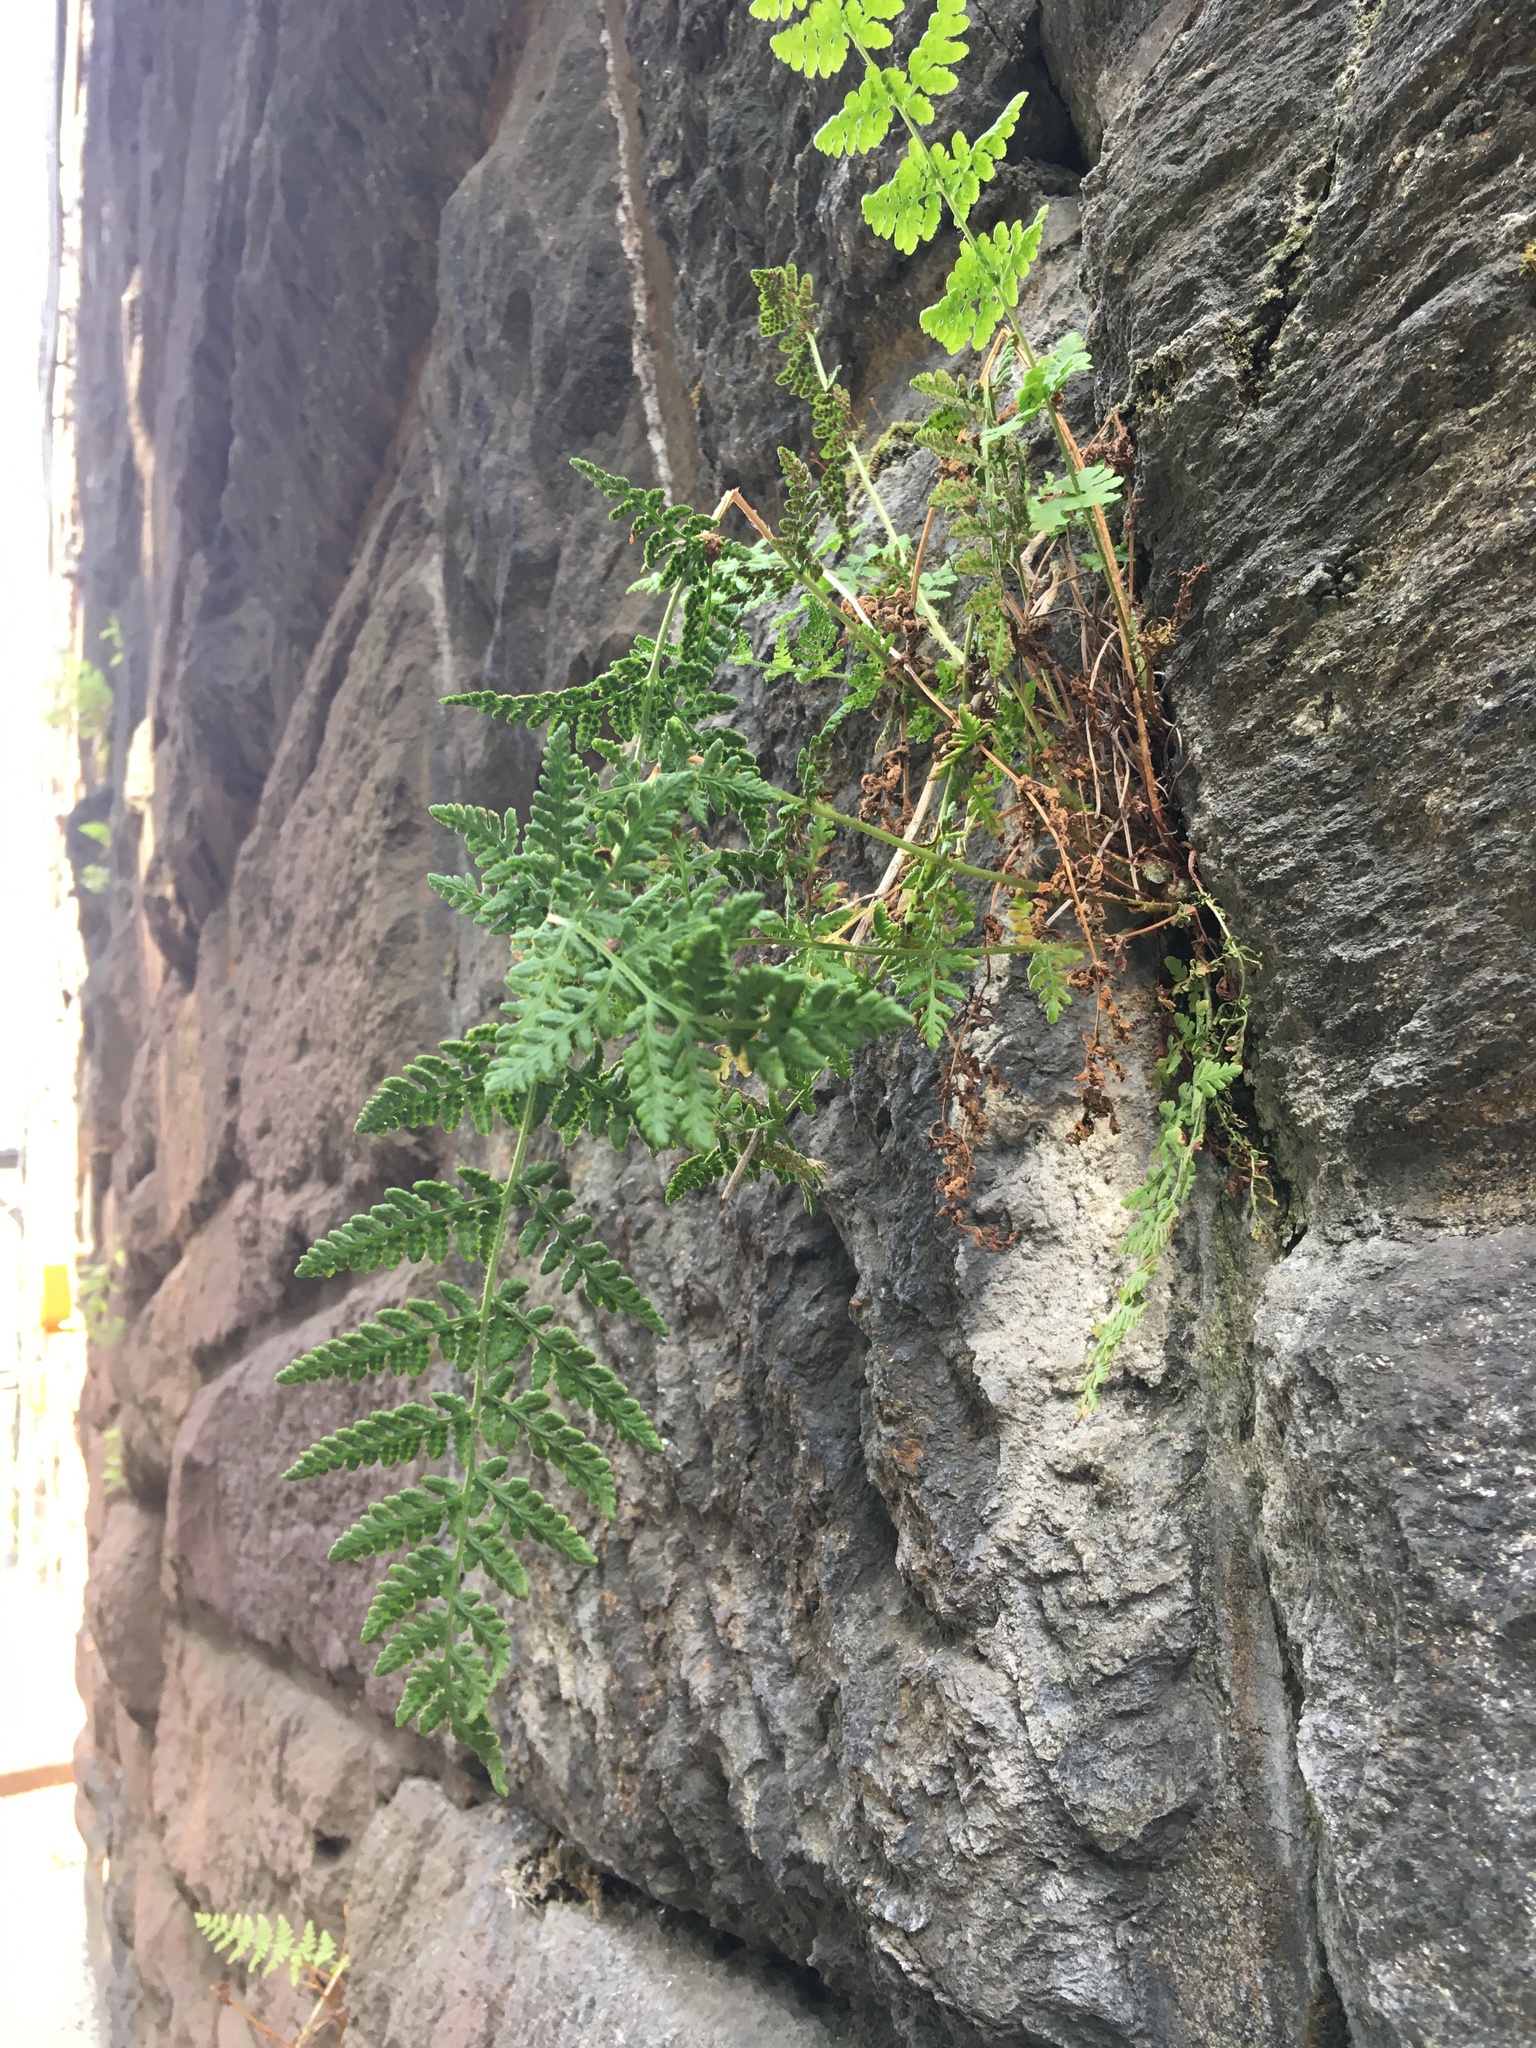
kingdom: Plantae
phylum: Tracheophyta
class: Polypodiopsida
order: Polypodiales
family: Woodsiaceae
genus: Physematium
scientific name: Physematium obtusum
